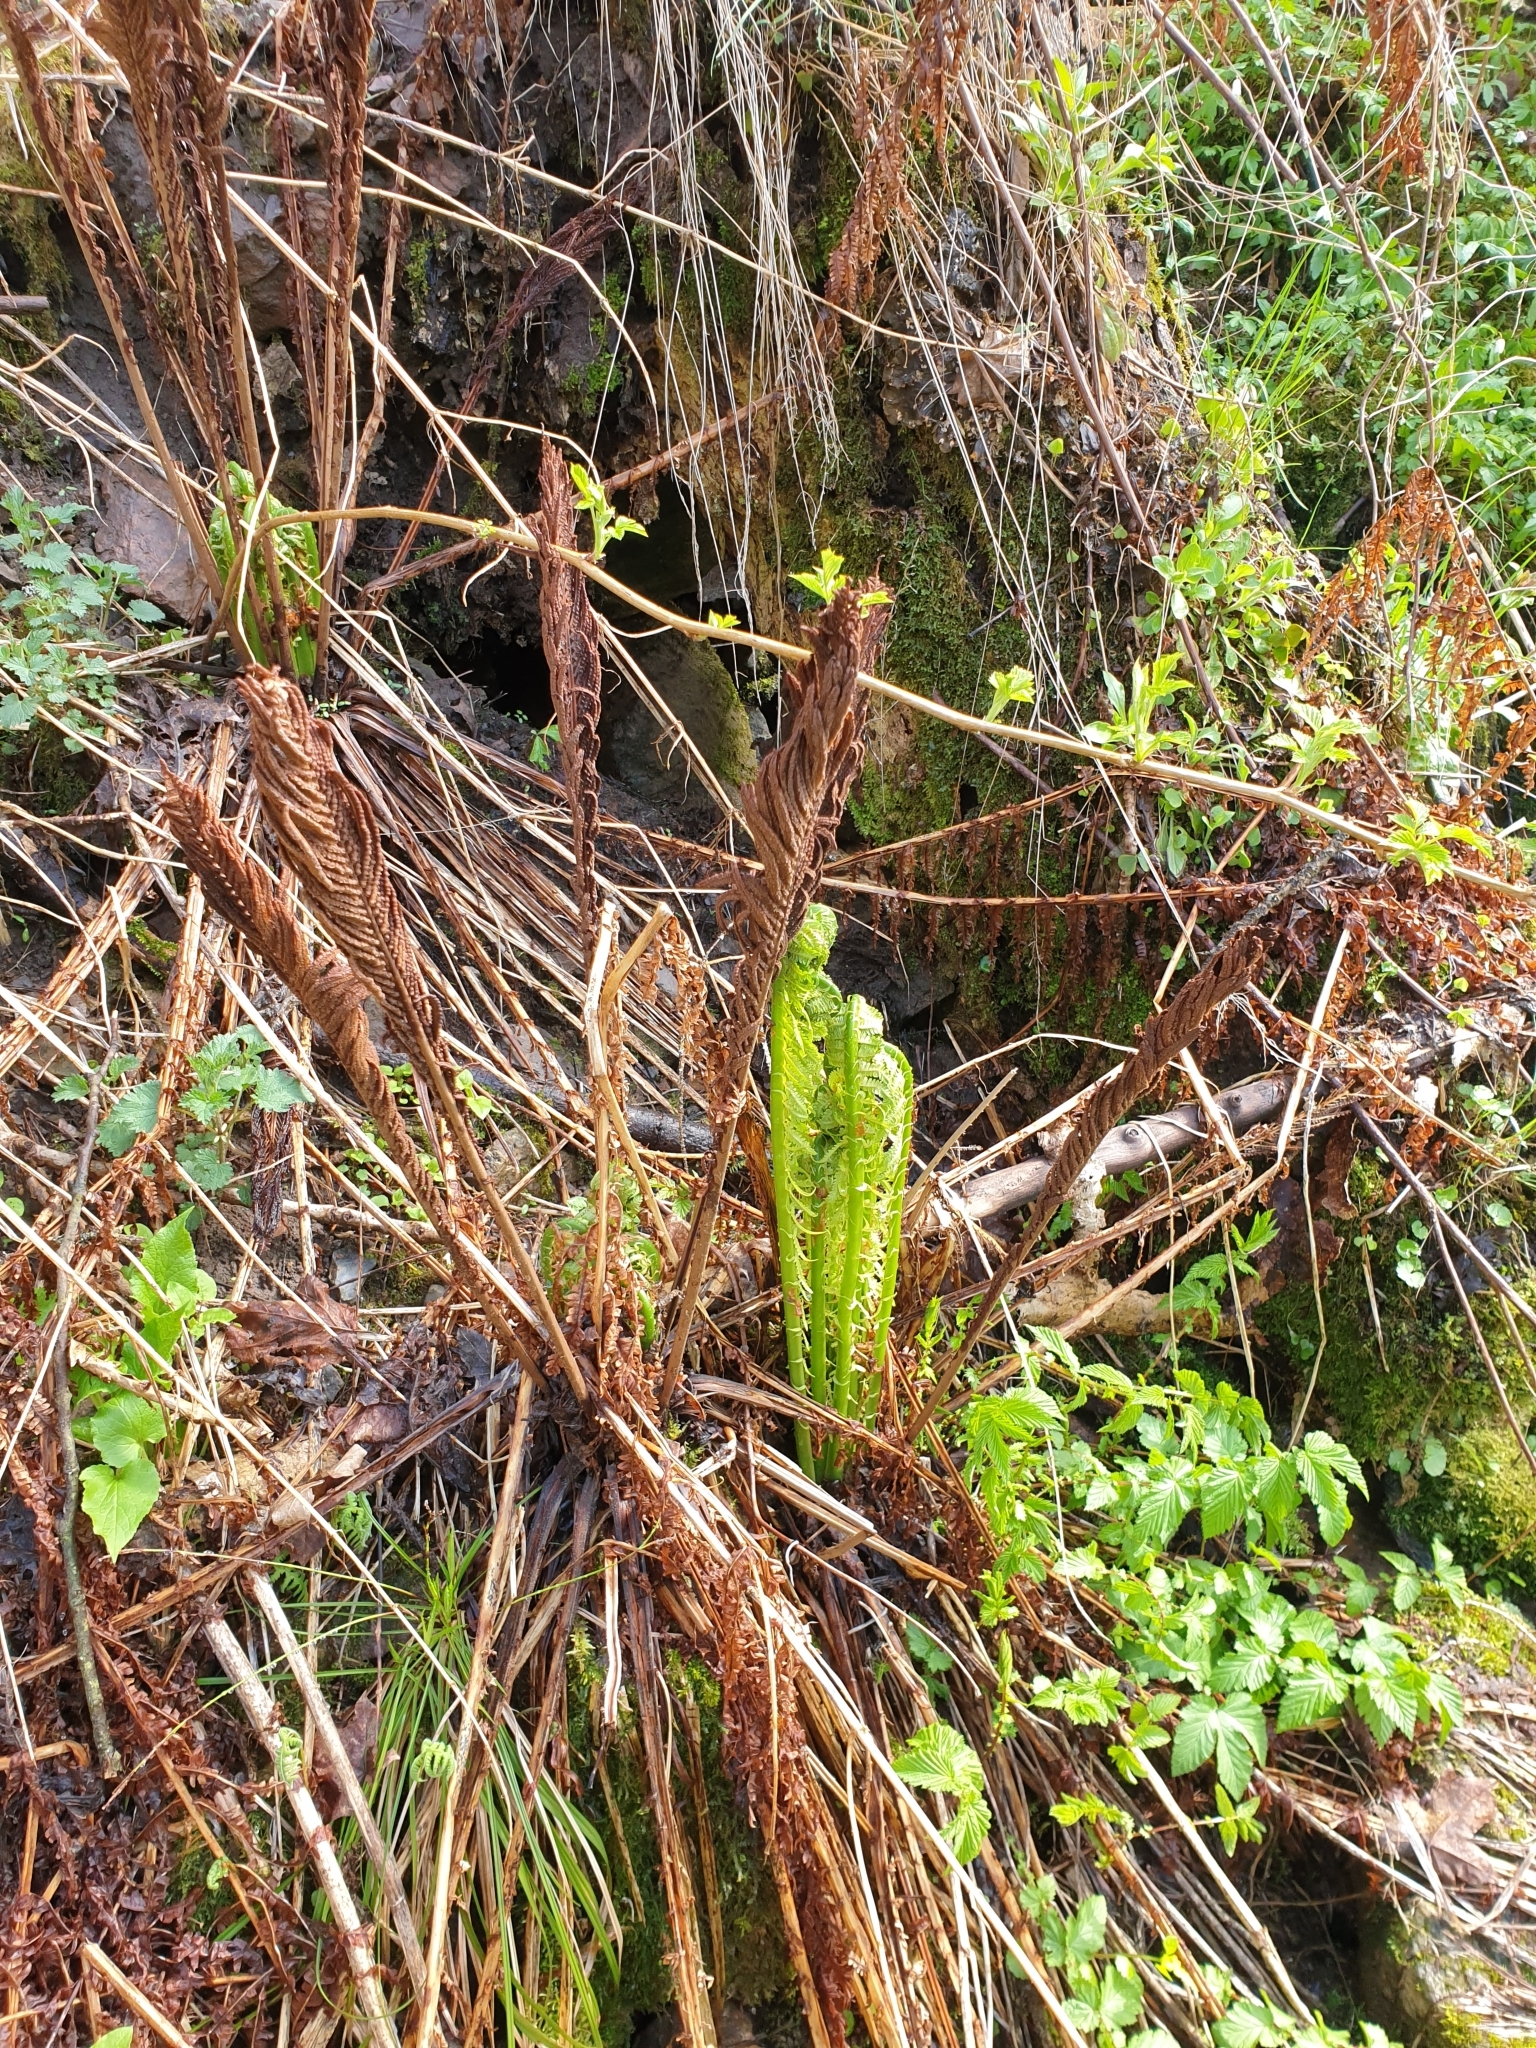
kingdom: Plantae
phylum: Tracheophyta
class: Polypodiopsida
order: Polypodiales
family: Onocleaceae
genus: Matteuccia
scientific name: Matteuccia struthiopteris
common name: Ostrich fern
